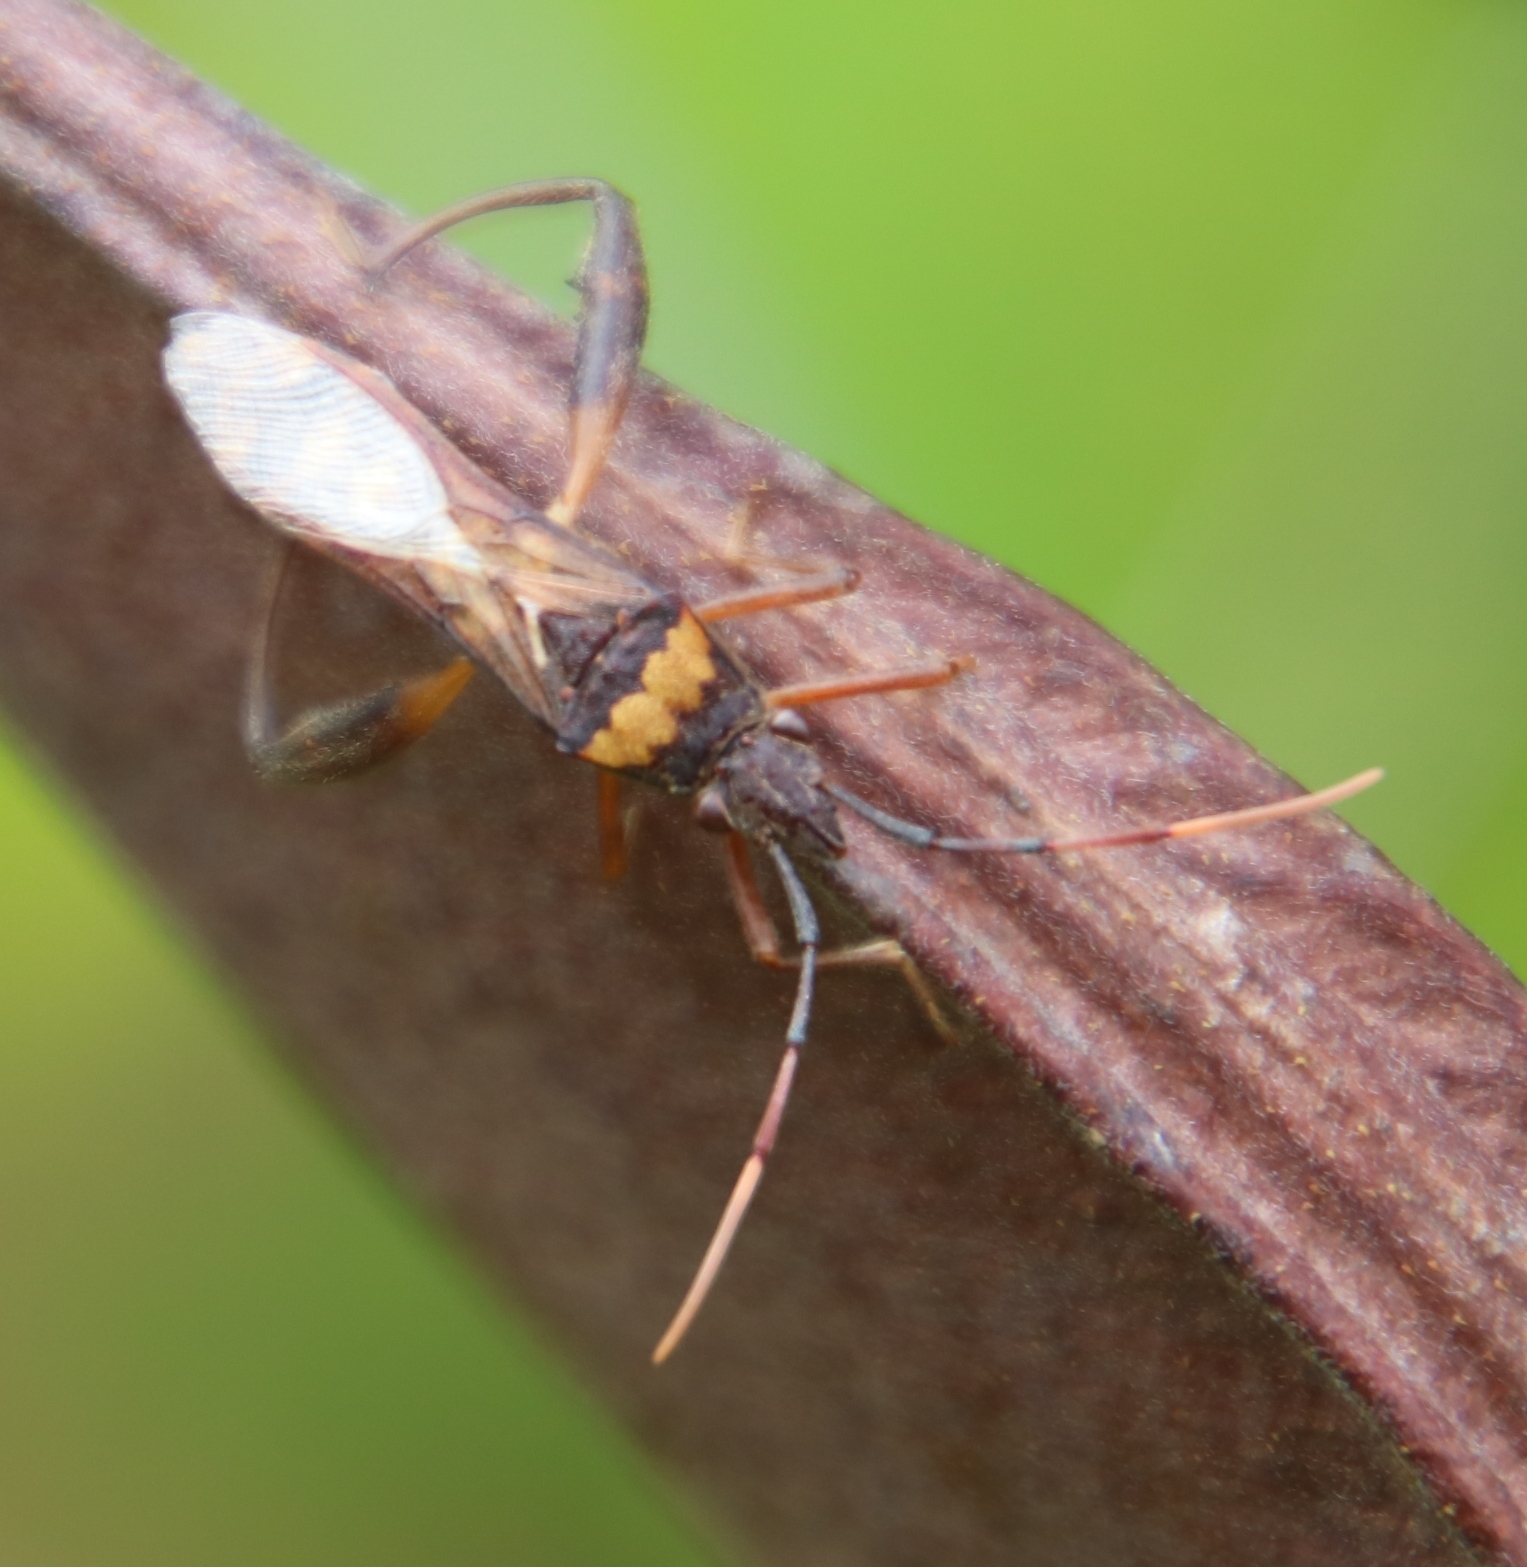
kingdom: Animalia
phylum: Arthropoda
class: Insecta
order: Hemiptera
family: Alydidae
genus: Tupalus
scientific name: Tupalus fasciatus
